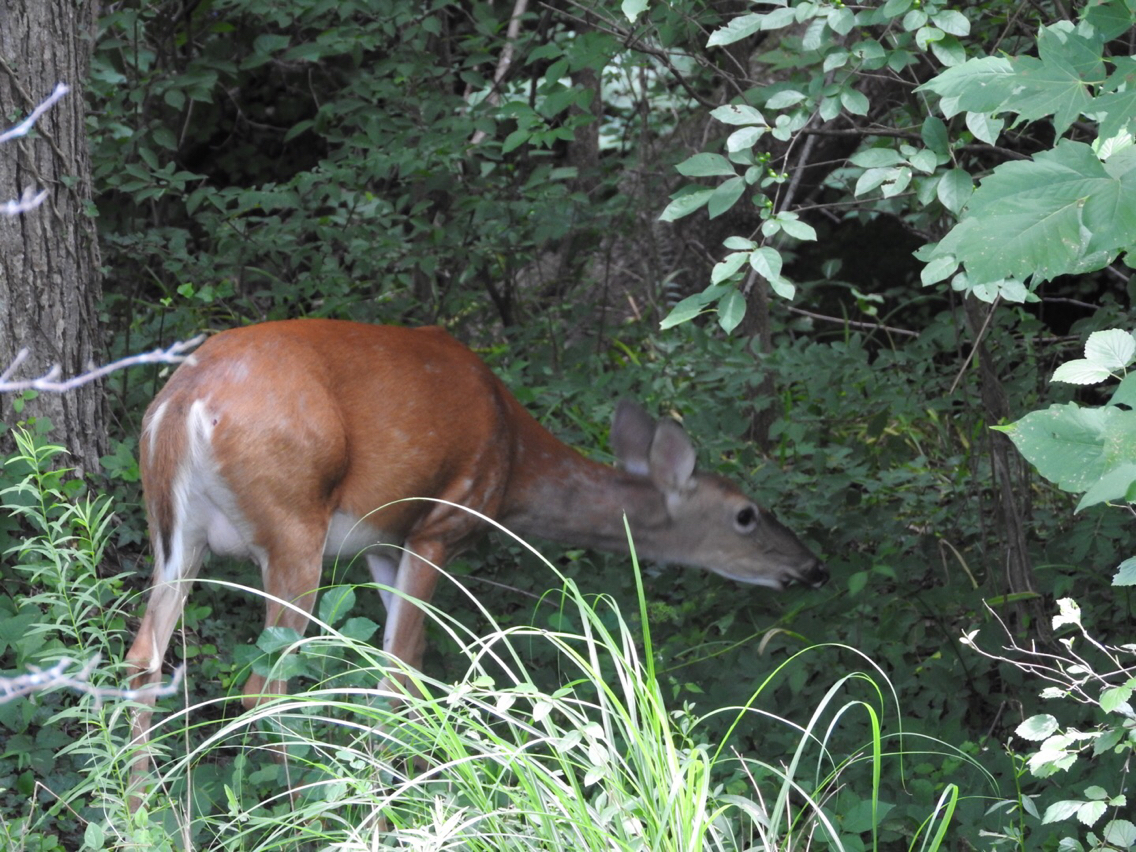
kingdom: Animalia
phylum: Chordata
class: Mammalia
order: Artiodactyla
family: Cervidae
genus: Odocoileus
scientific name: Odocoileus virginianus
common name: White-tailed deer
